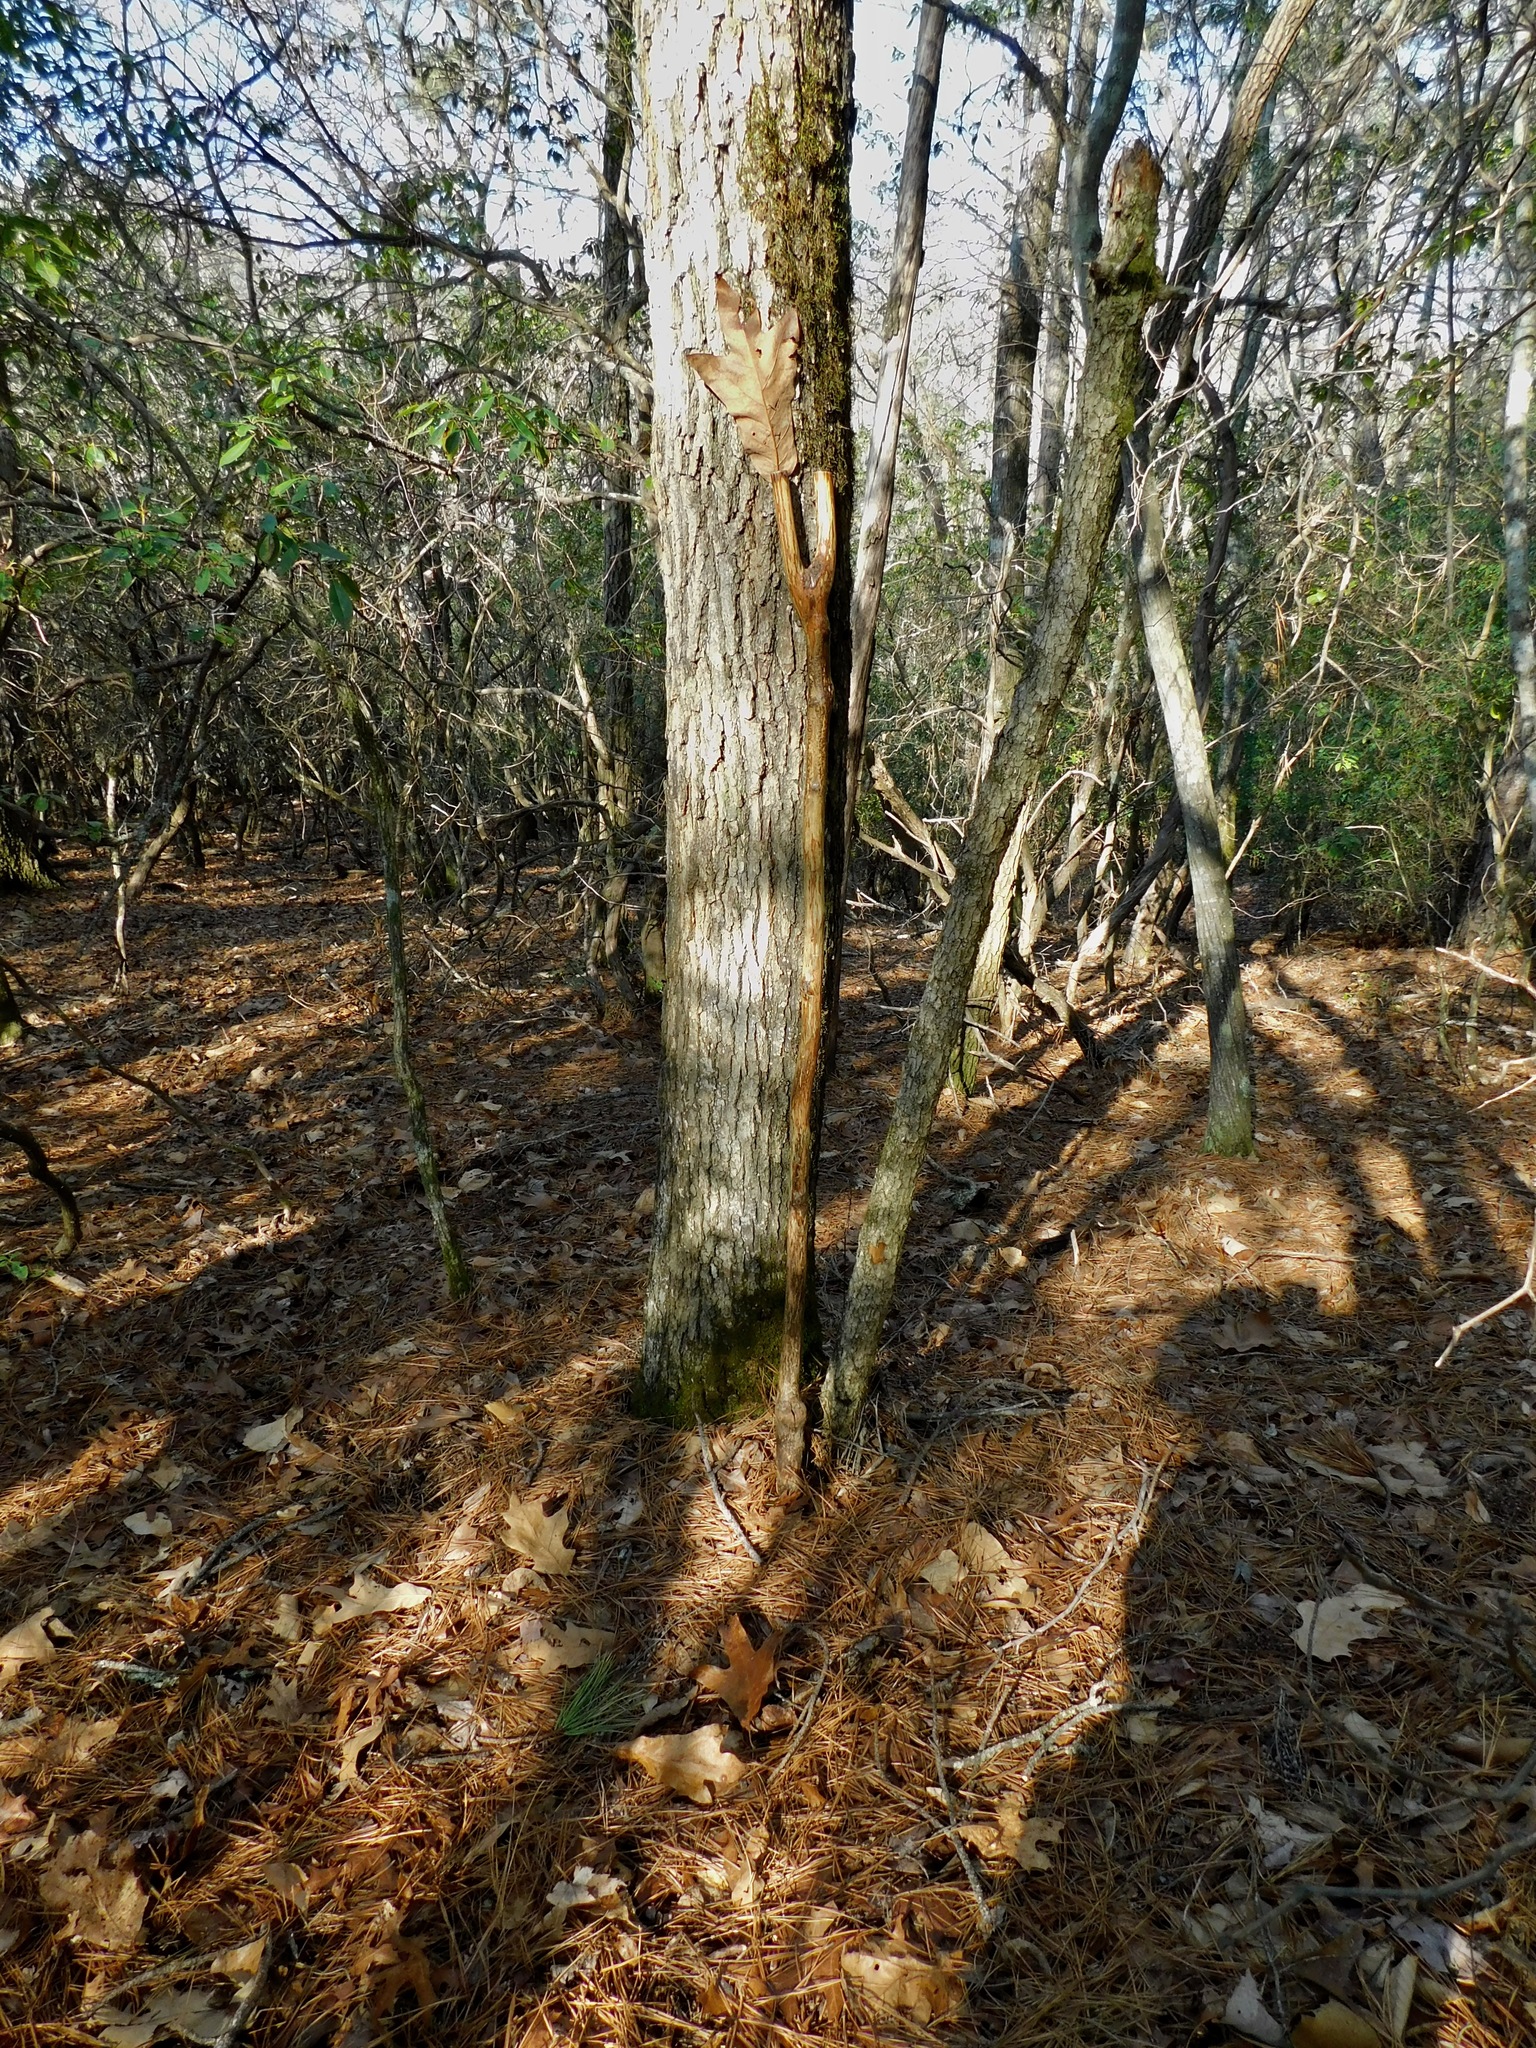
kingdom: Plantae
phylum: Tracheophyta
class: Magnoliopsida
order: Fagales
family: Fagaceae
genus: Quercus
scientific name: Quercus falcata
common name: Southern red oak
